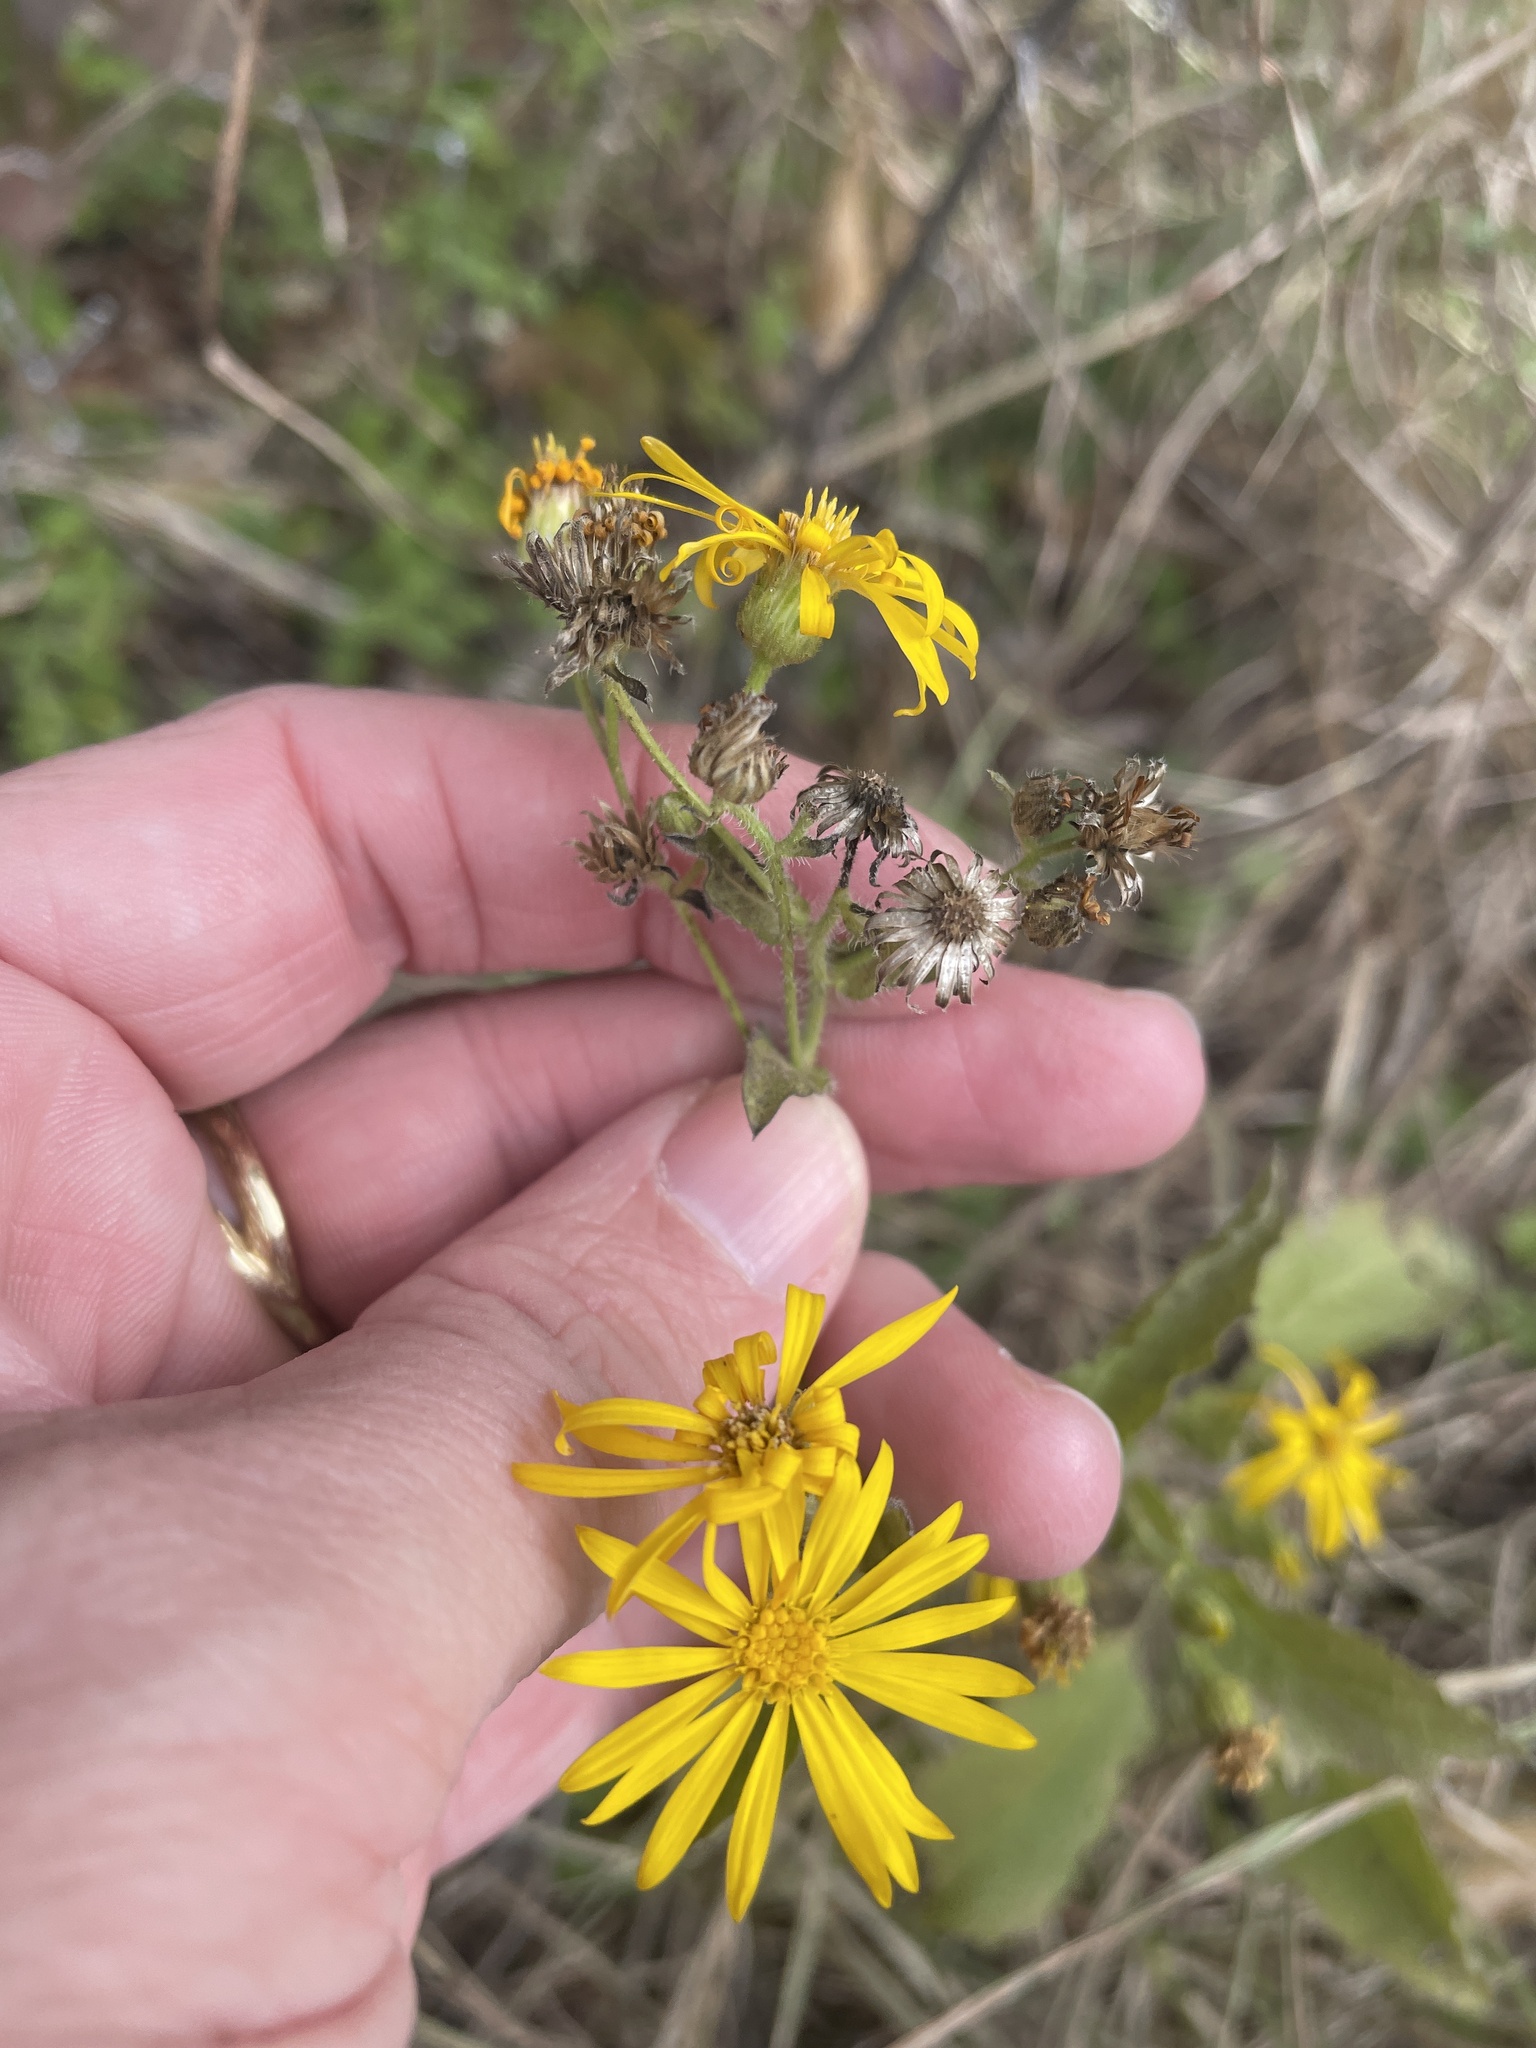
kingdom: Plantae
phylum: Tracheophyta
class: Magnoliopsida
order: Asterales
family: Asteraceae
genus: Heterotheca
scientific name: Heterotheca subaxillaris
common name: Camphorweed
